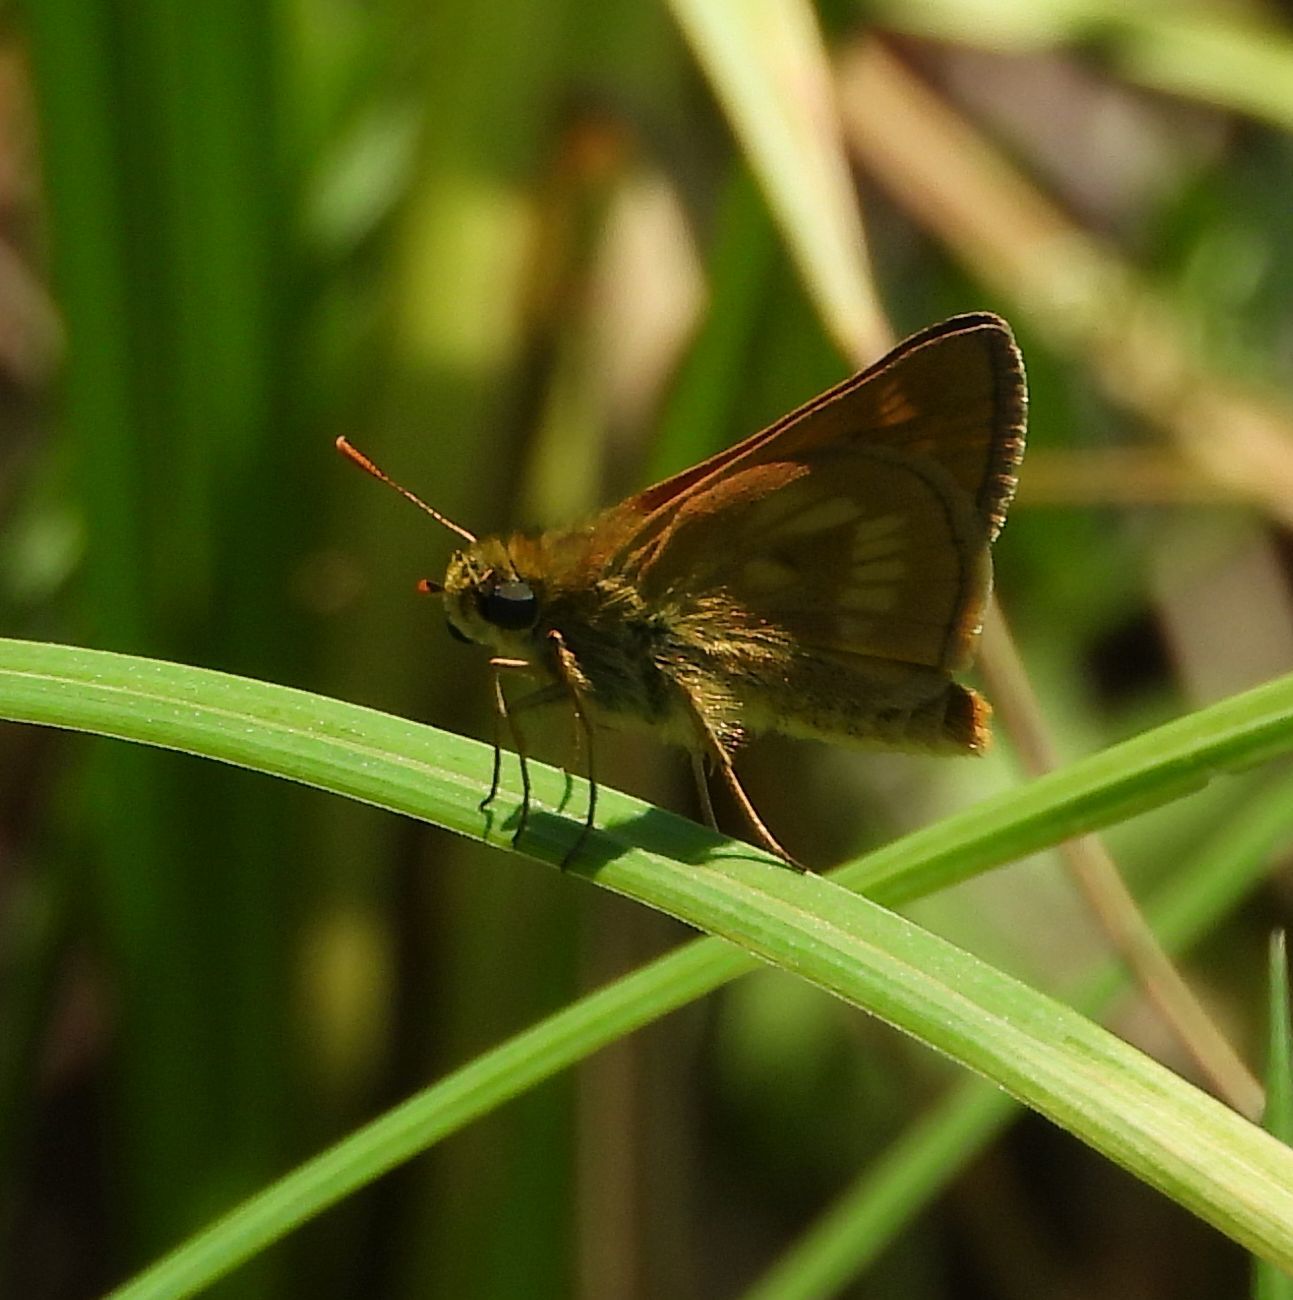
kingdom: Animalia
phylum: Arthropoda
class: Insecta
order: Lepidoptera
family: Hesperiidae
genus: Polites
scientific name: Polites mystic
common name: Long dash
